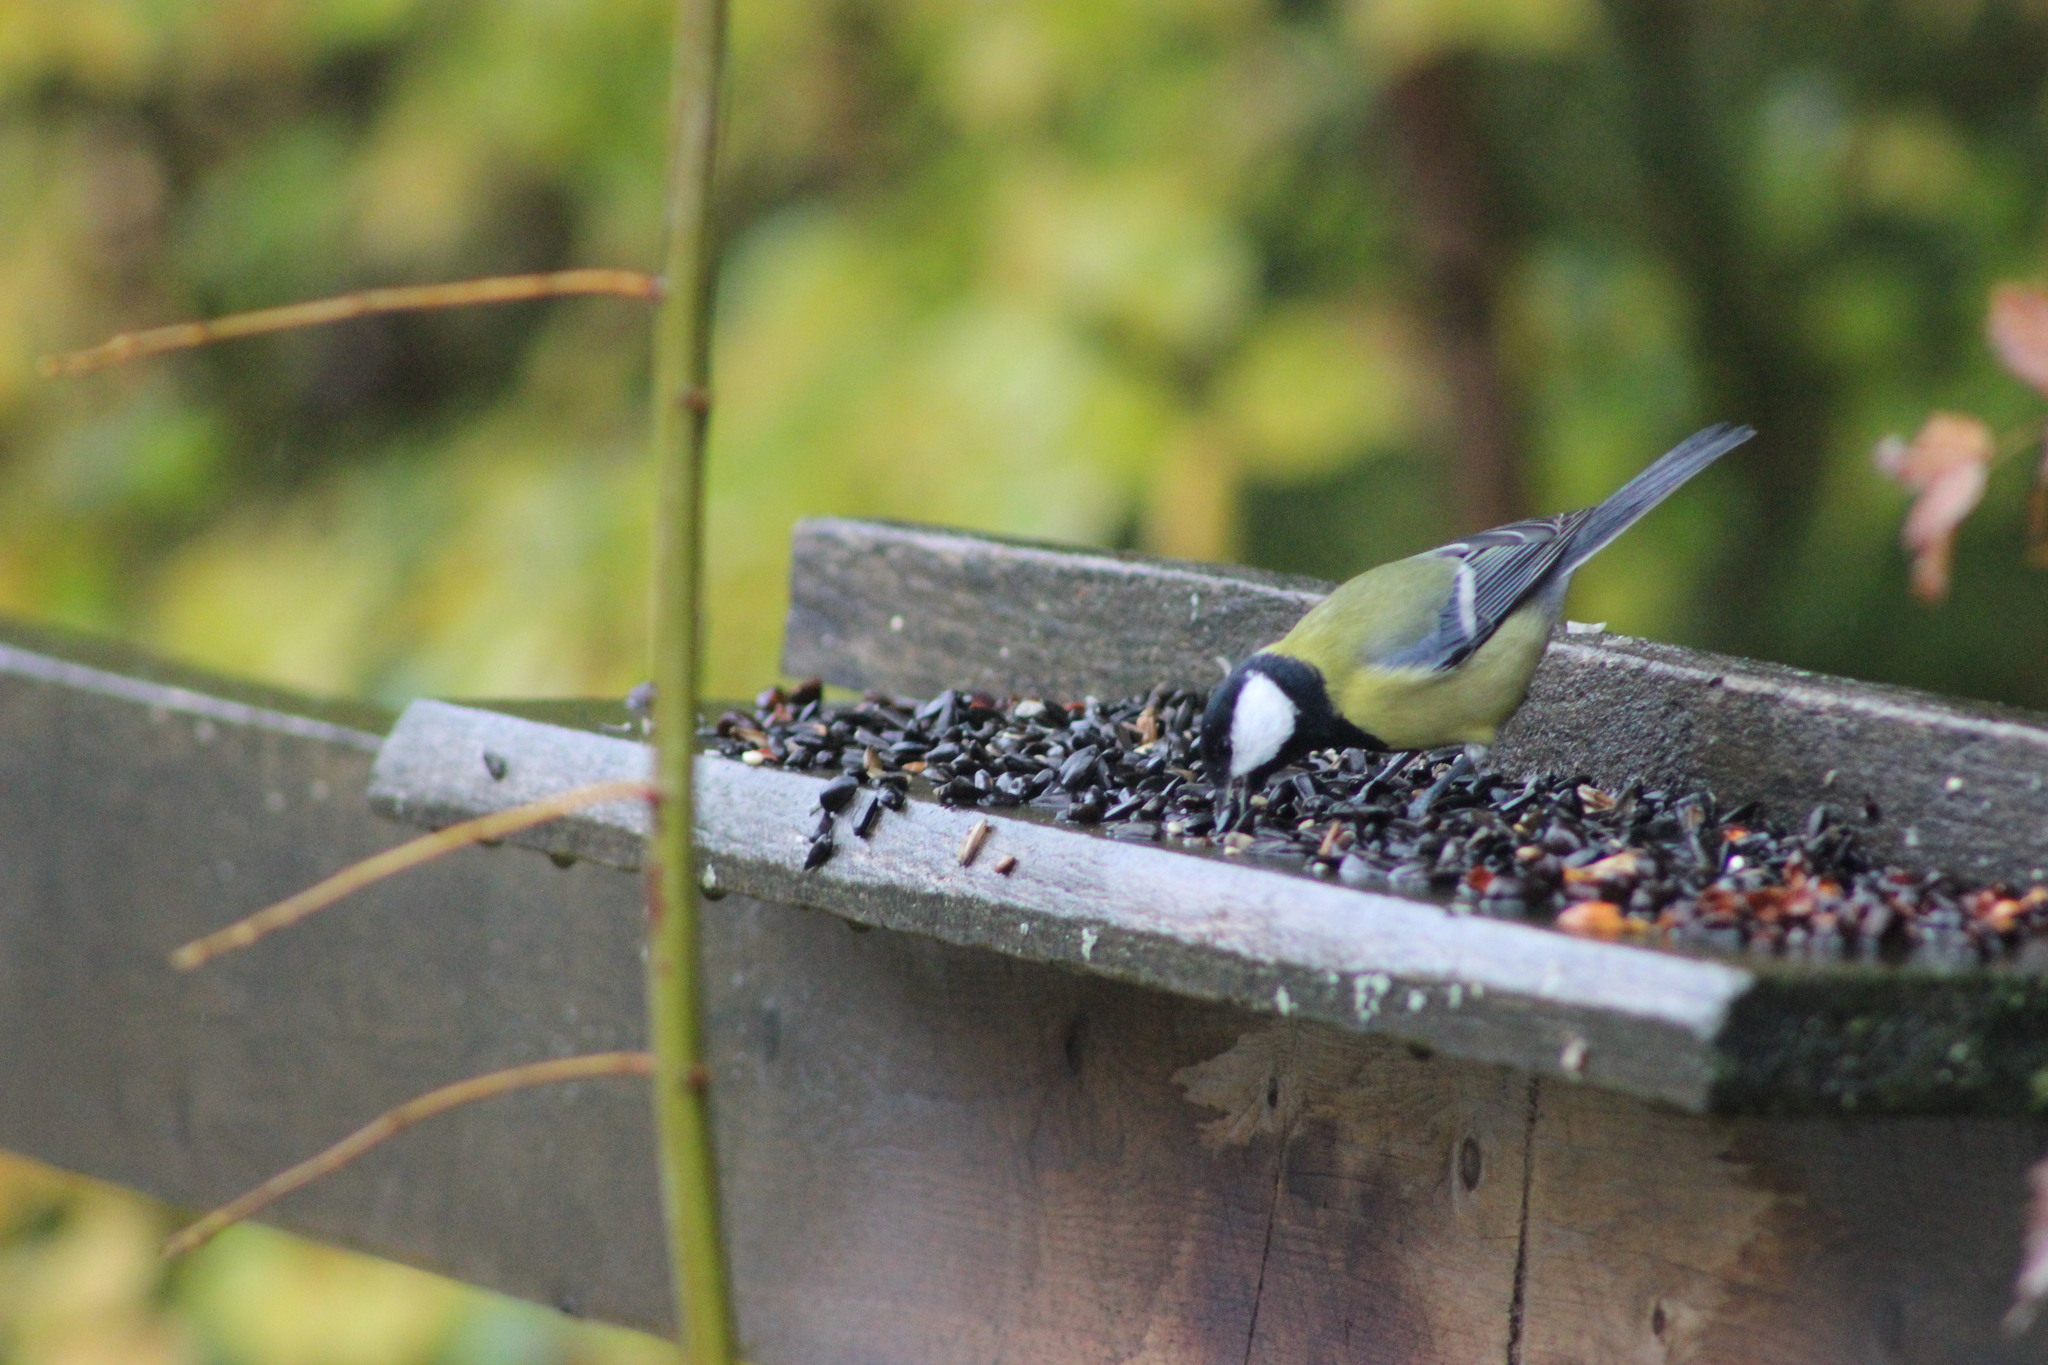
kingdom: Animalia
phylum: Chordata
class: Aves
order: Passeriformes
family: Paridae
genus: Parus
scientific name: Parus major
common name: Great tit
